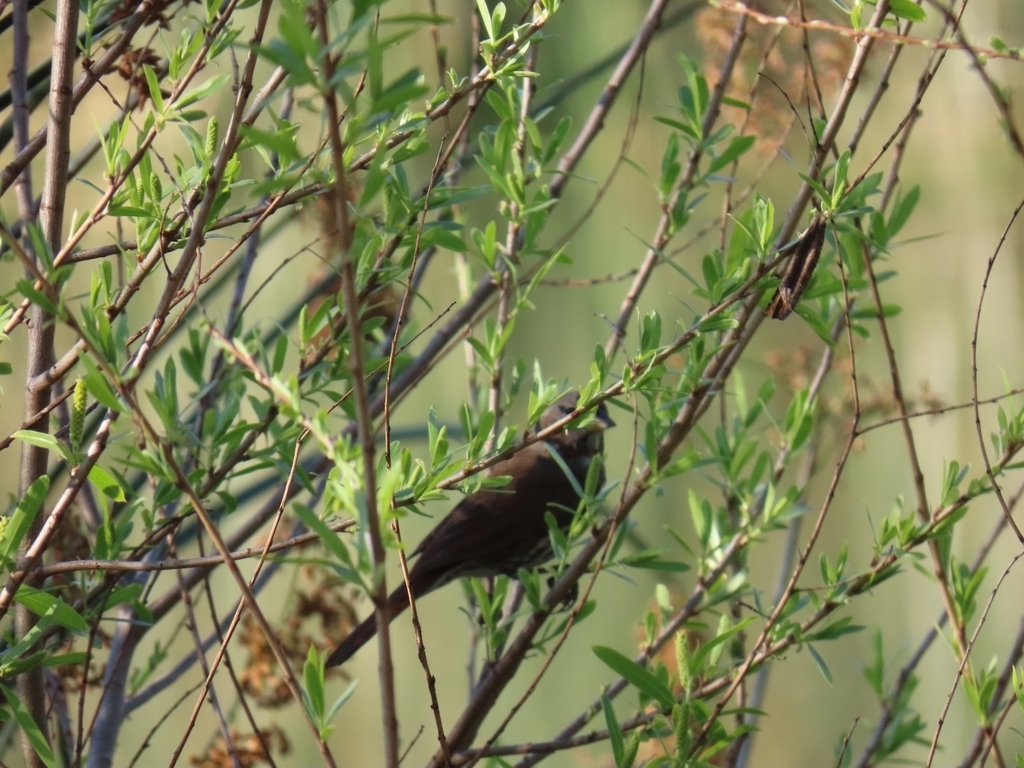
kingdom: Animalia
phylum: Chordata
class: Aves
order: Passeriformes
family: Passerellidae
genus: Passerella
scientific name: Passerella iliaca
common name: Fox sparrow
